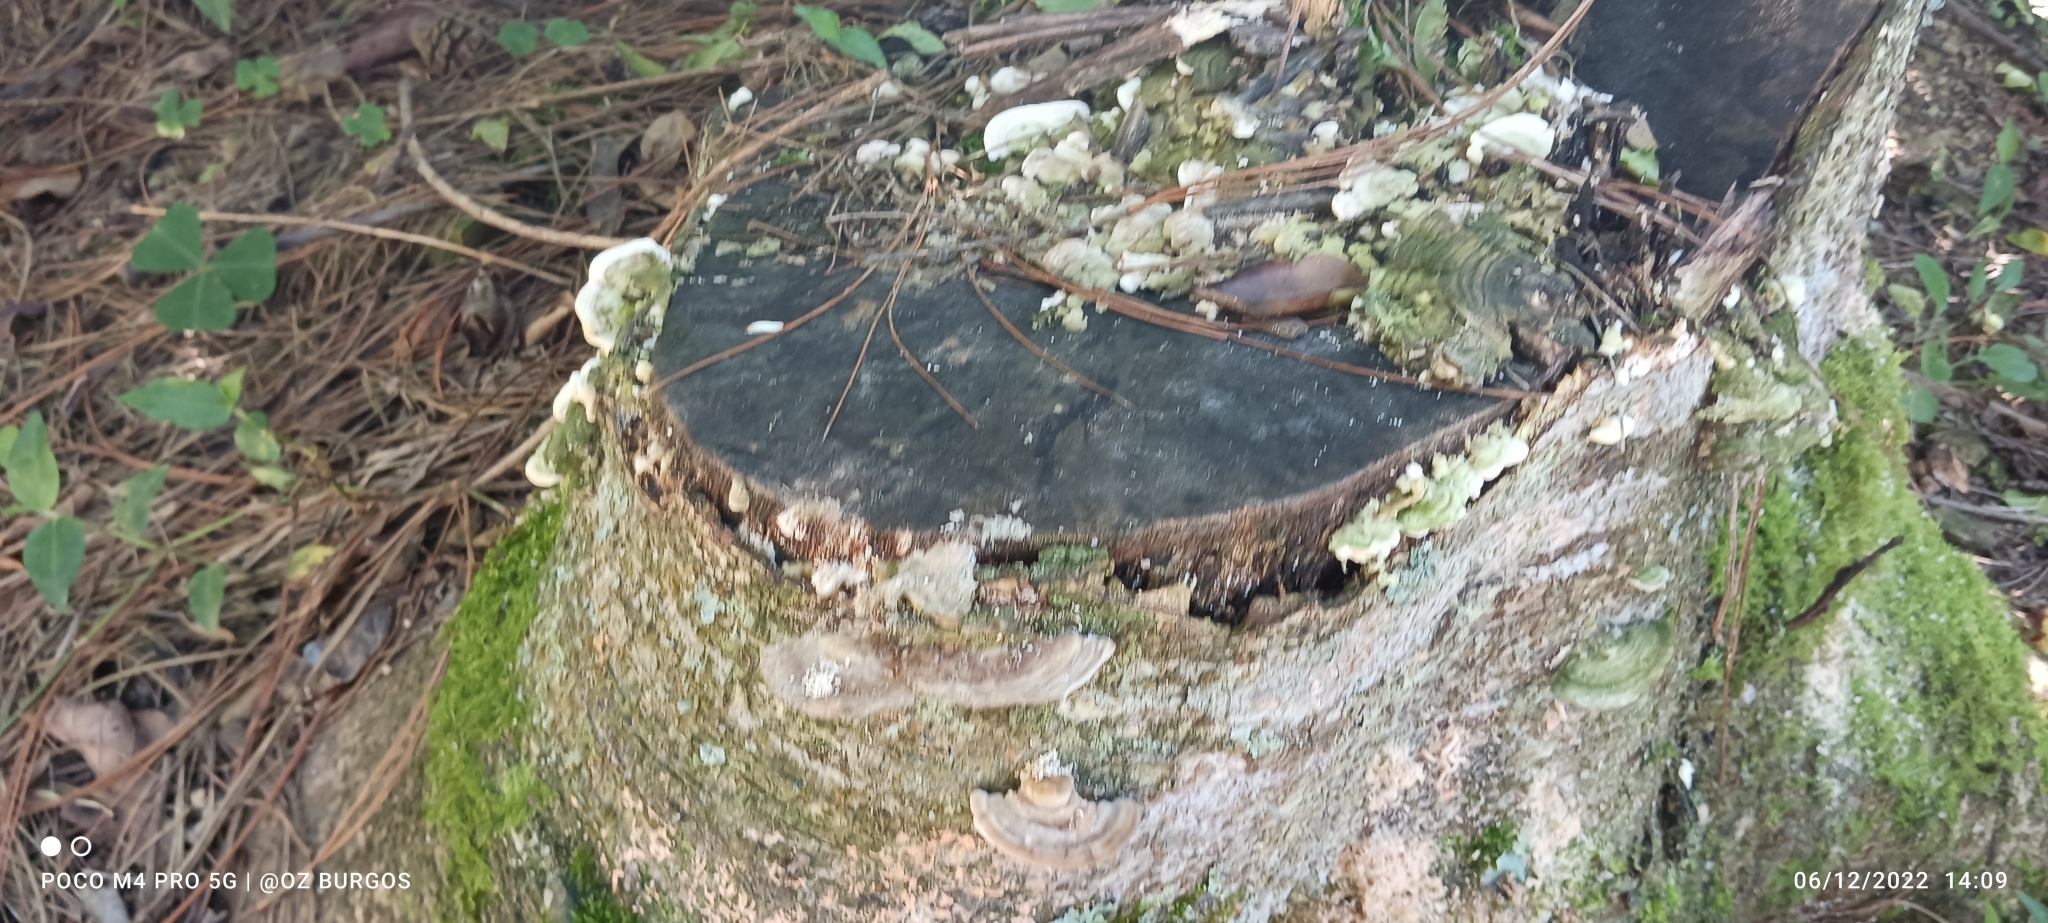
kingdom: Fungi
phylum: Basidiomycota
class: Agaricomycetes
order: Polyporales
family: Fomitopsidaceae
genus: Fomitopsis
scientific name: Fomitopsis
